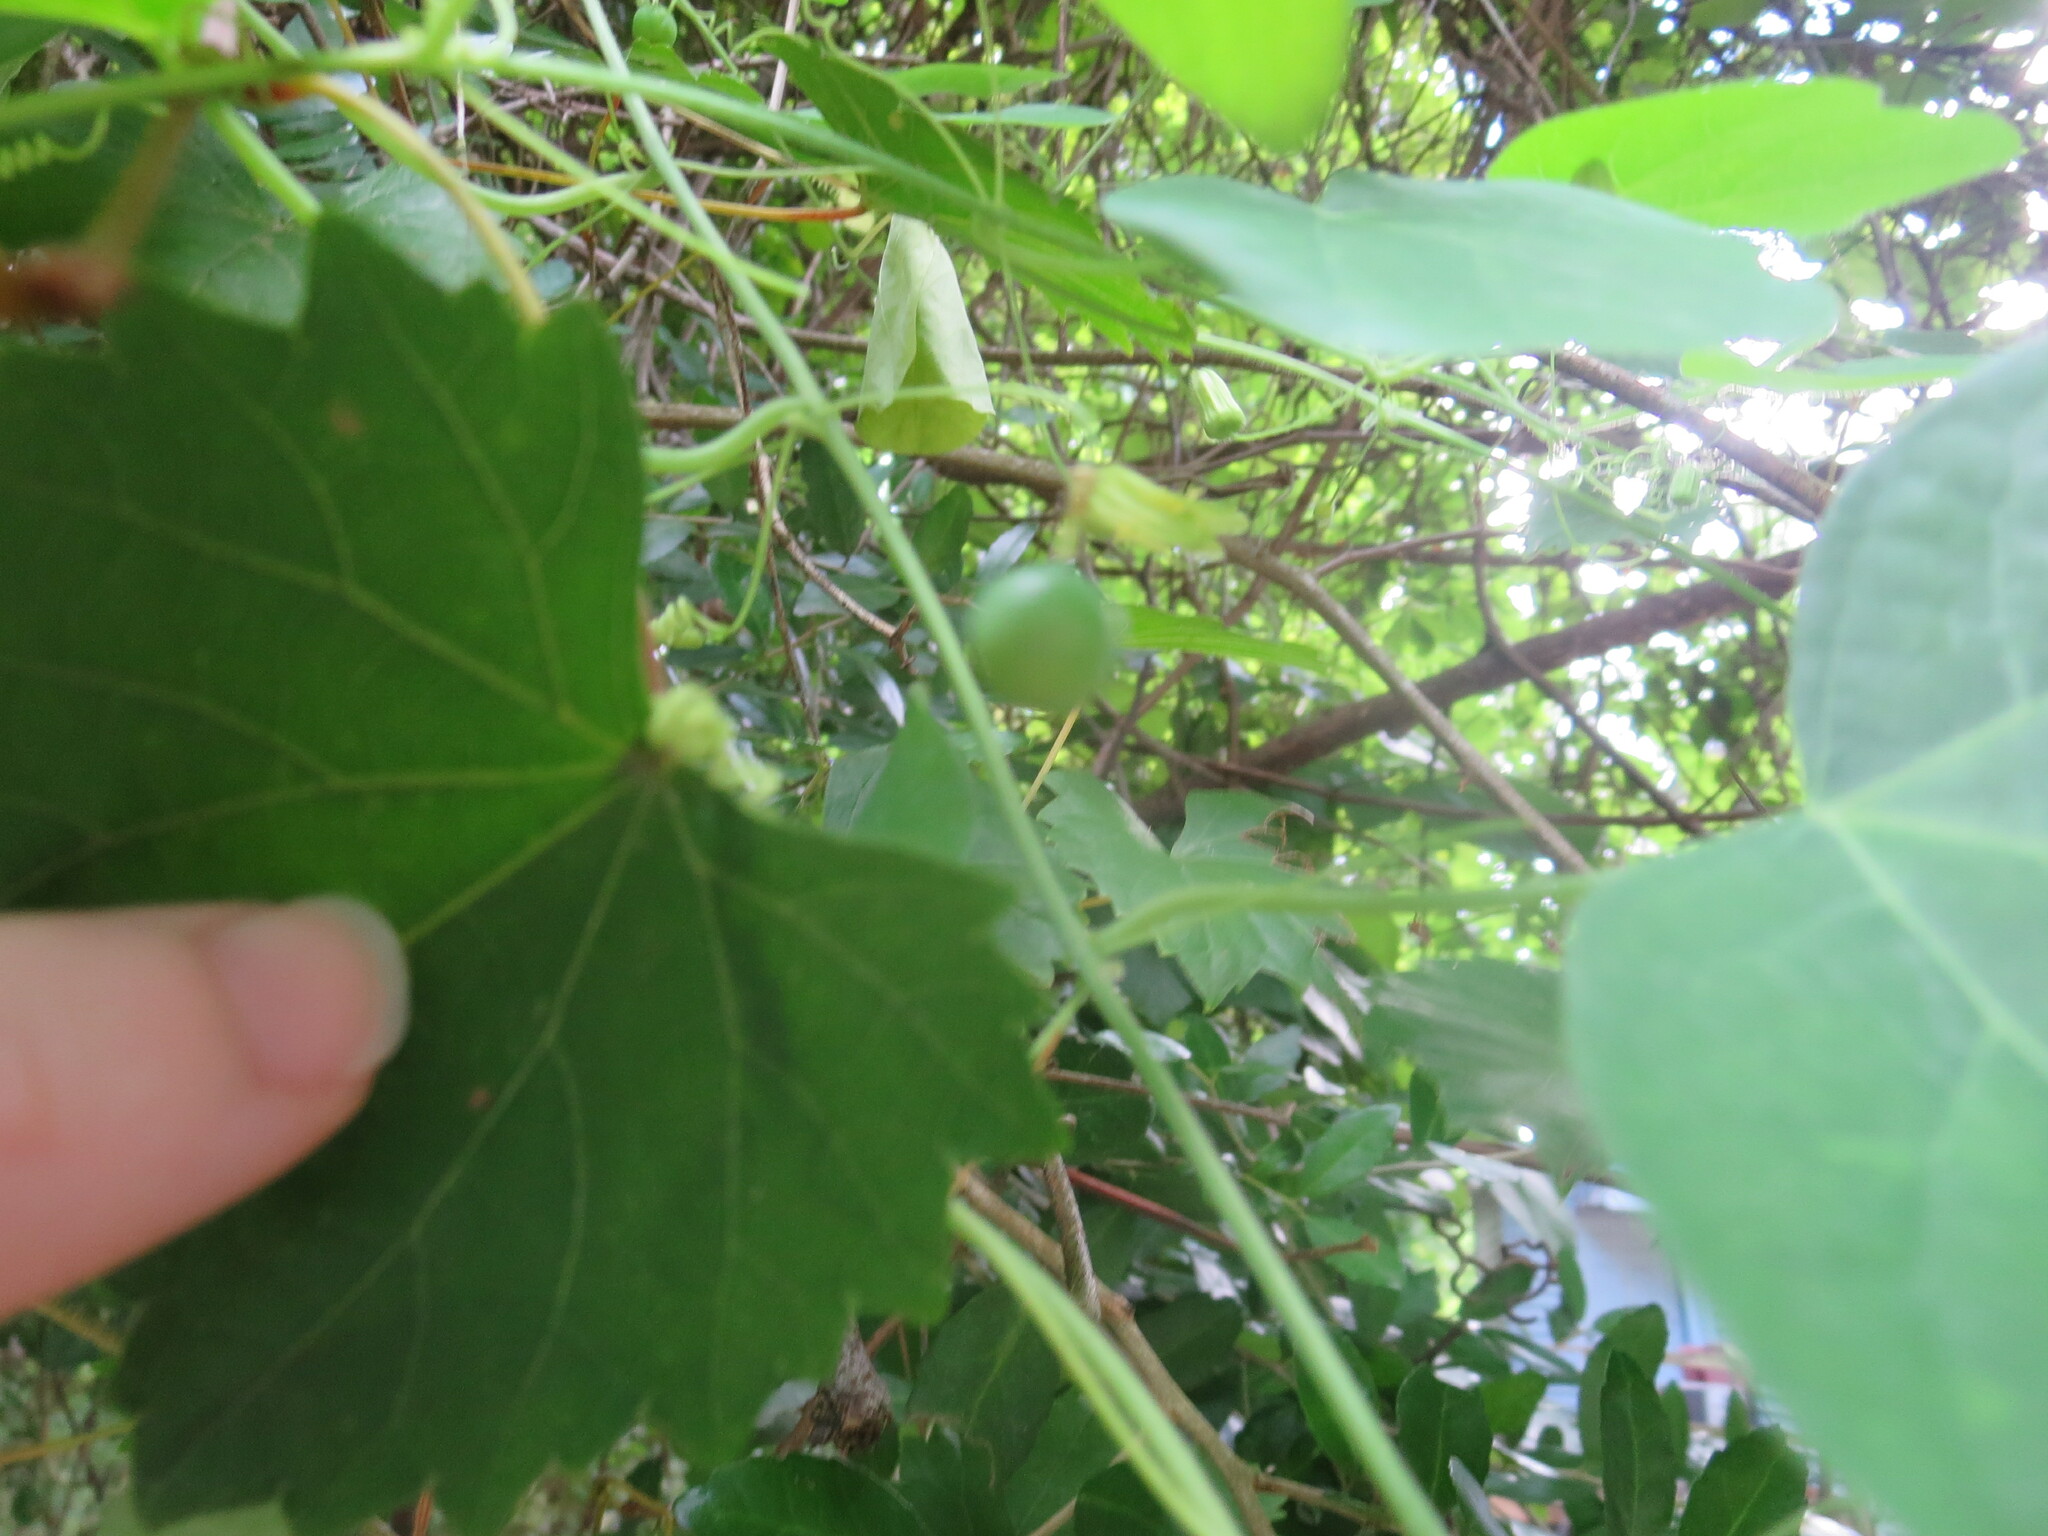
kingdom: Plantae
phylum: Tracheophyta
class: Magnoliopsida
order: Malpighiales
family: Passifloraceae
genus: Passiflora
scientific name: Passiflora lutea
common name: Yellow passionflower
